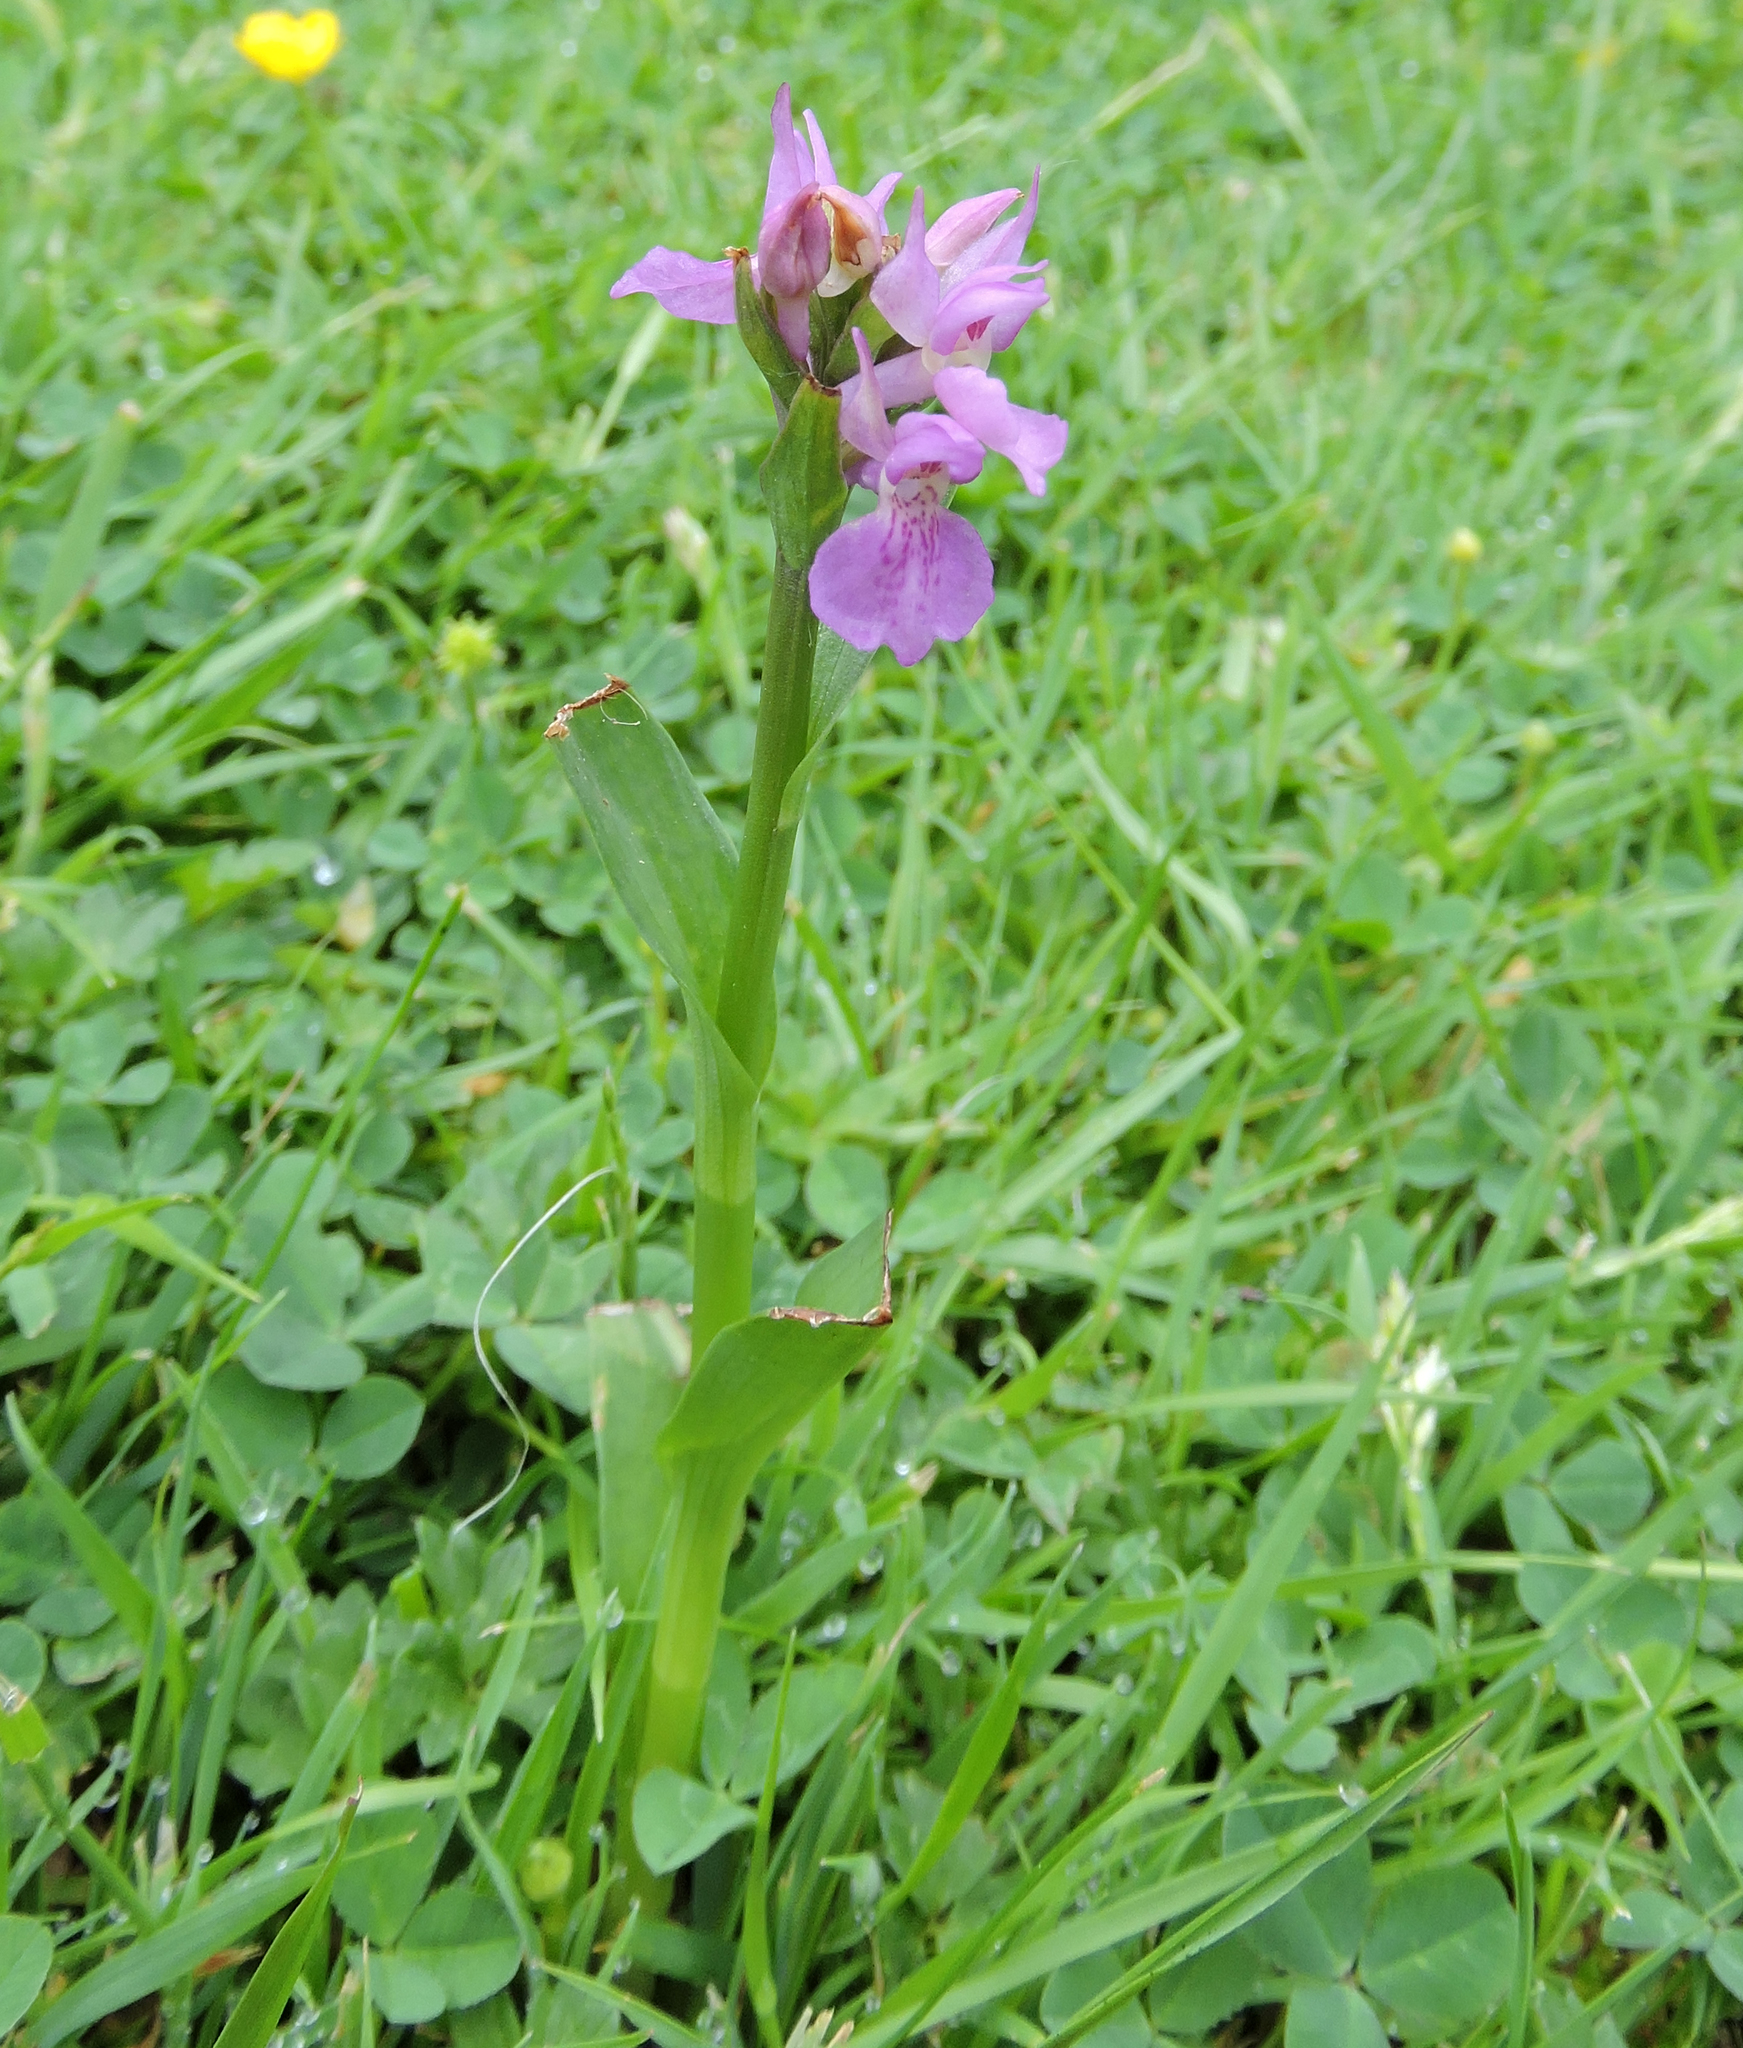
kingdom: Plantae
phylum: Tracheophyta
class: Liliopsida
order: Asparagales
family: Orchidaceae
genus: Dactylorhiza
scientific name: Dactylorhiza majalis
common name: Marsh orchid
